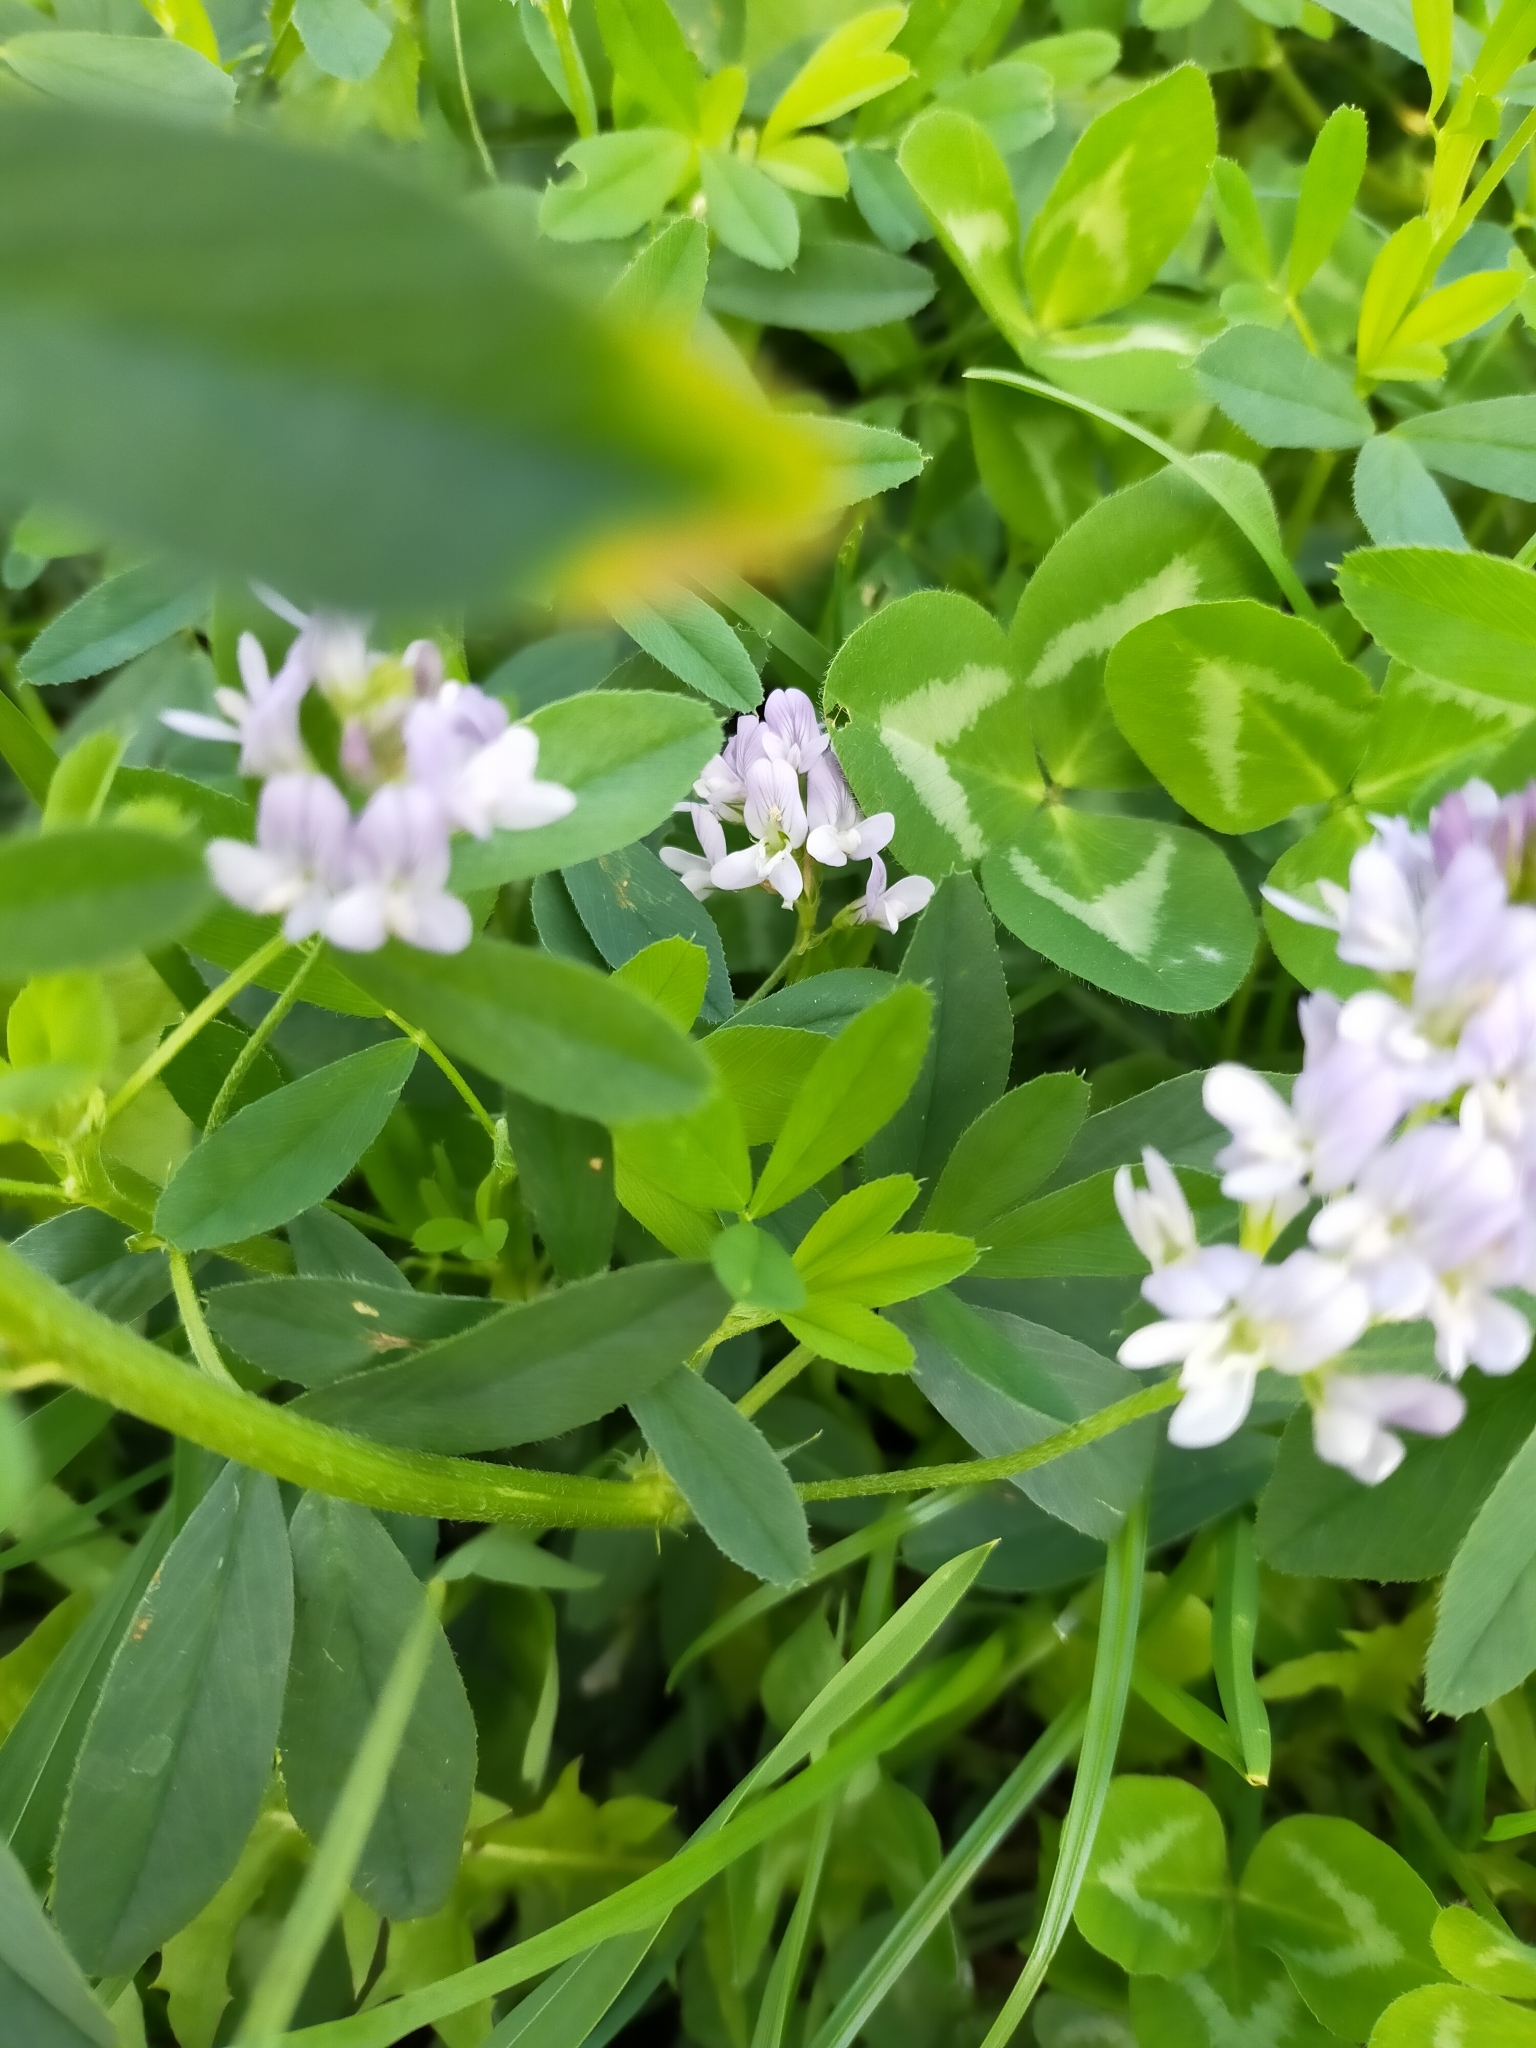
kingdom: Plantae
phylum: Tracheophyta
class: Magnoliopsida
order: Fabales
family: Fabaceae
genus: Medicago
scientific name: Medicago varia
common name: Sand lucerne
